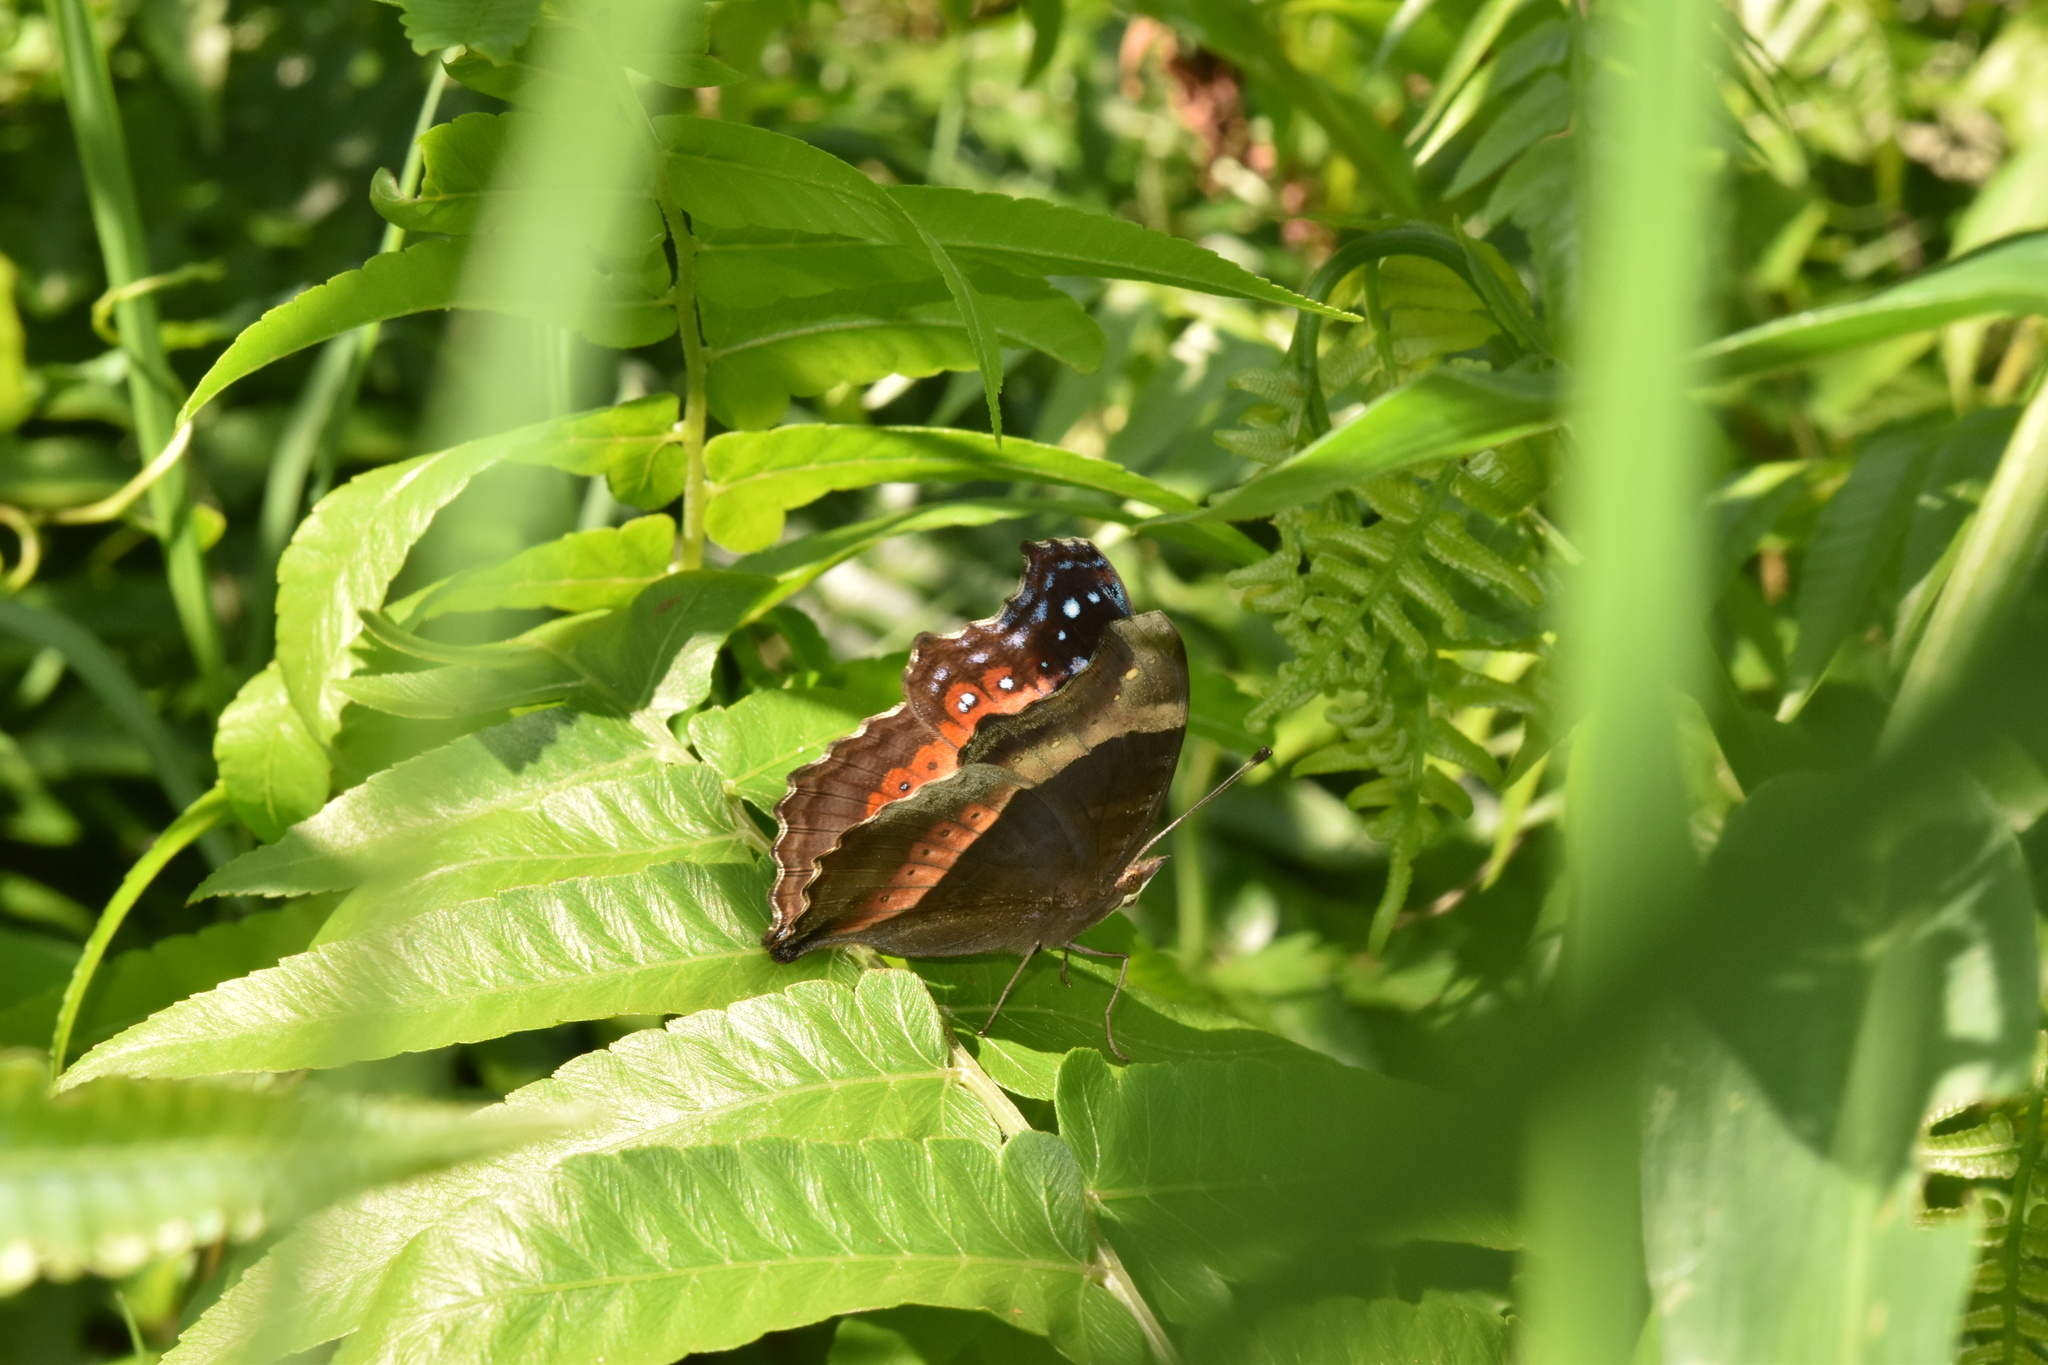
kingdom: Animalia
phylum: Arthropoda
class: Insecta
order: Lepidoptera
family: Nymphalidae
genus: Junonia
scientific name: Junonia archesia
